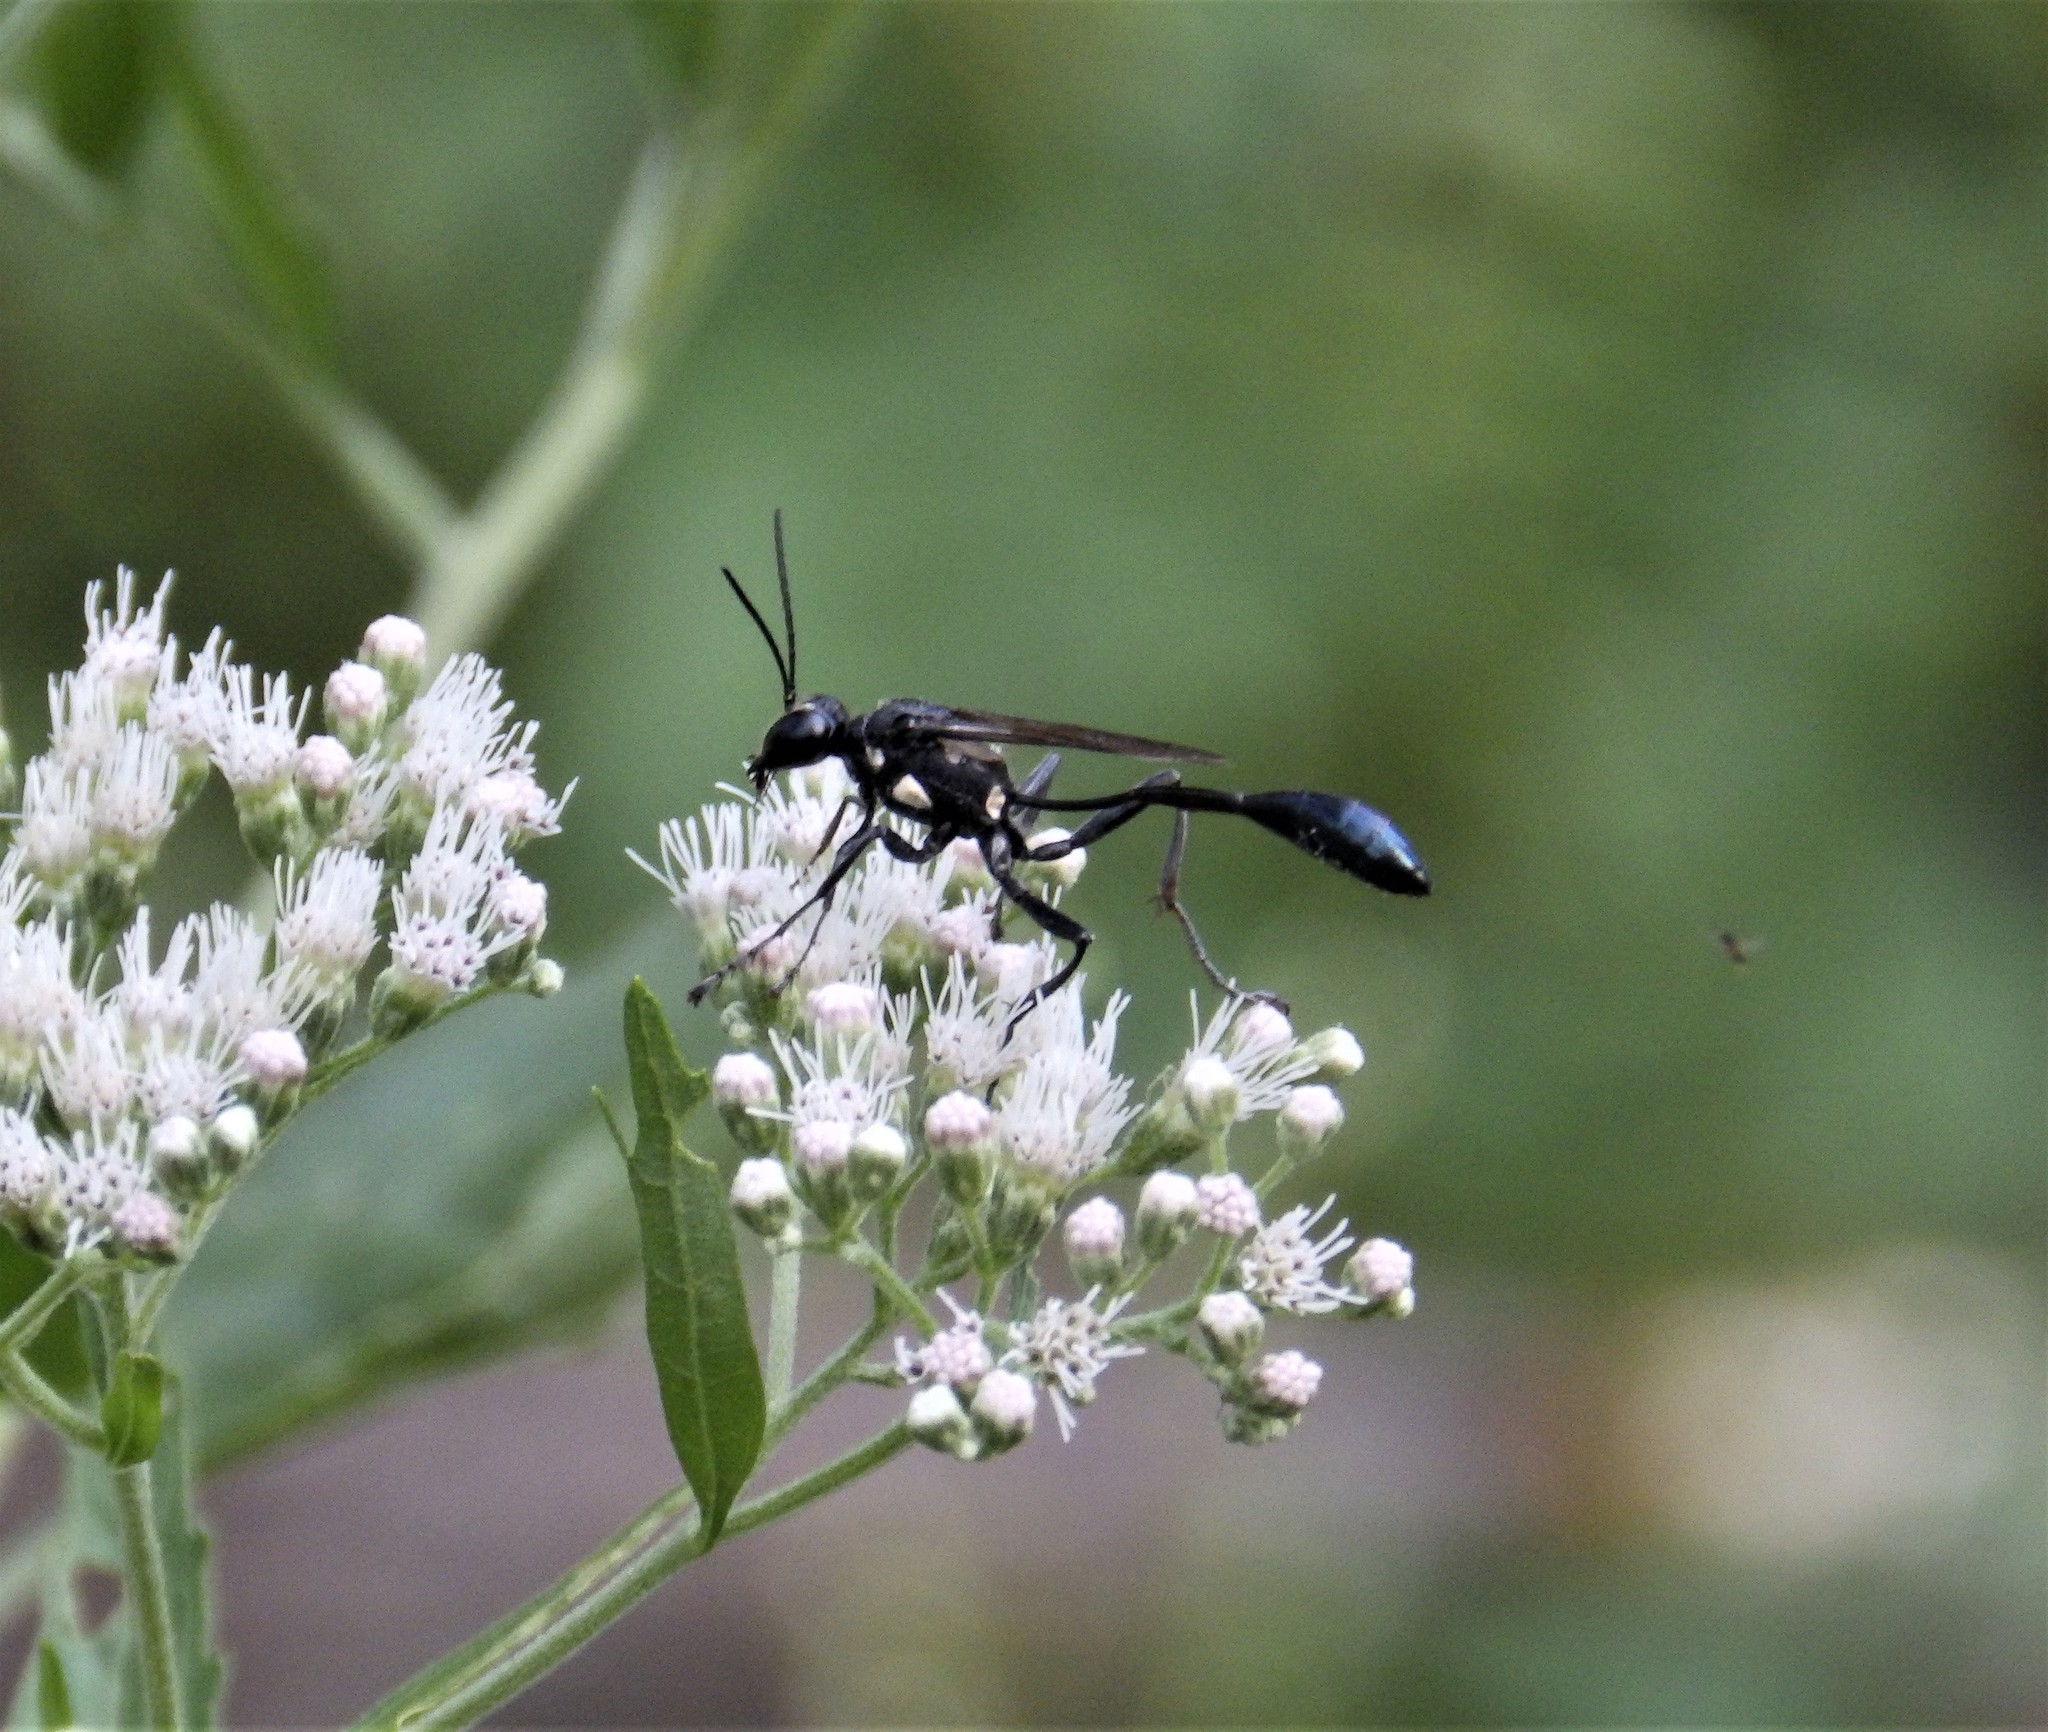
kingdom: Animalia
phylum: Arthropoda
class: Insecta
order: Hymenoptera
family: Sphecidae
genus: Eremnophila
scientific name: Eremnophila aureonotata
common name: Gold-marked thread-waisted wasp
